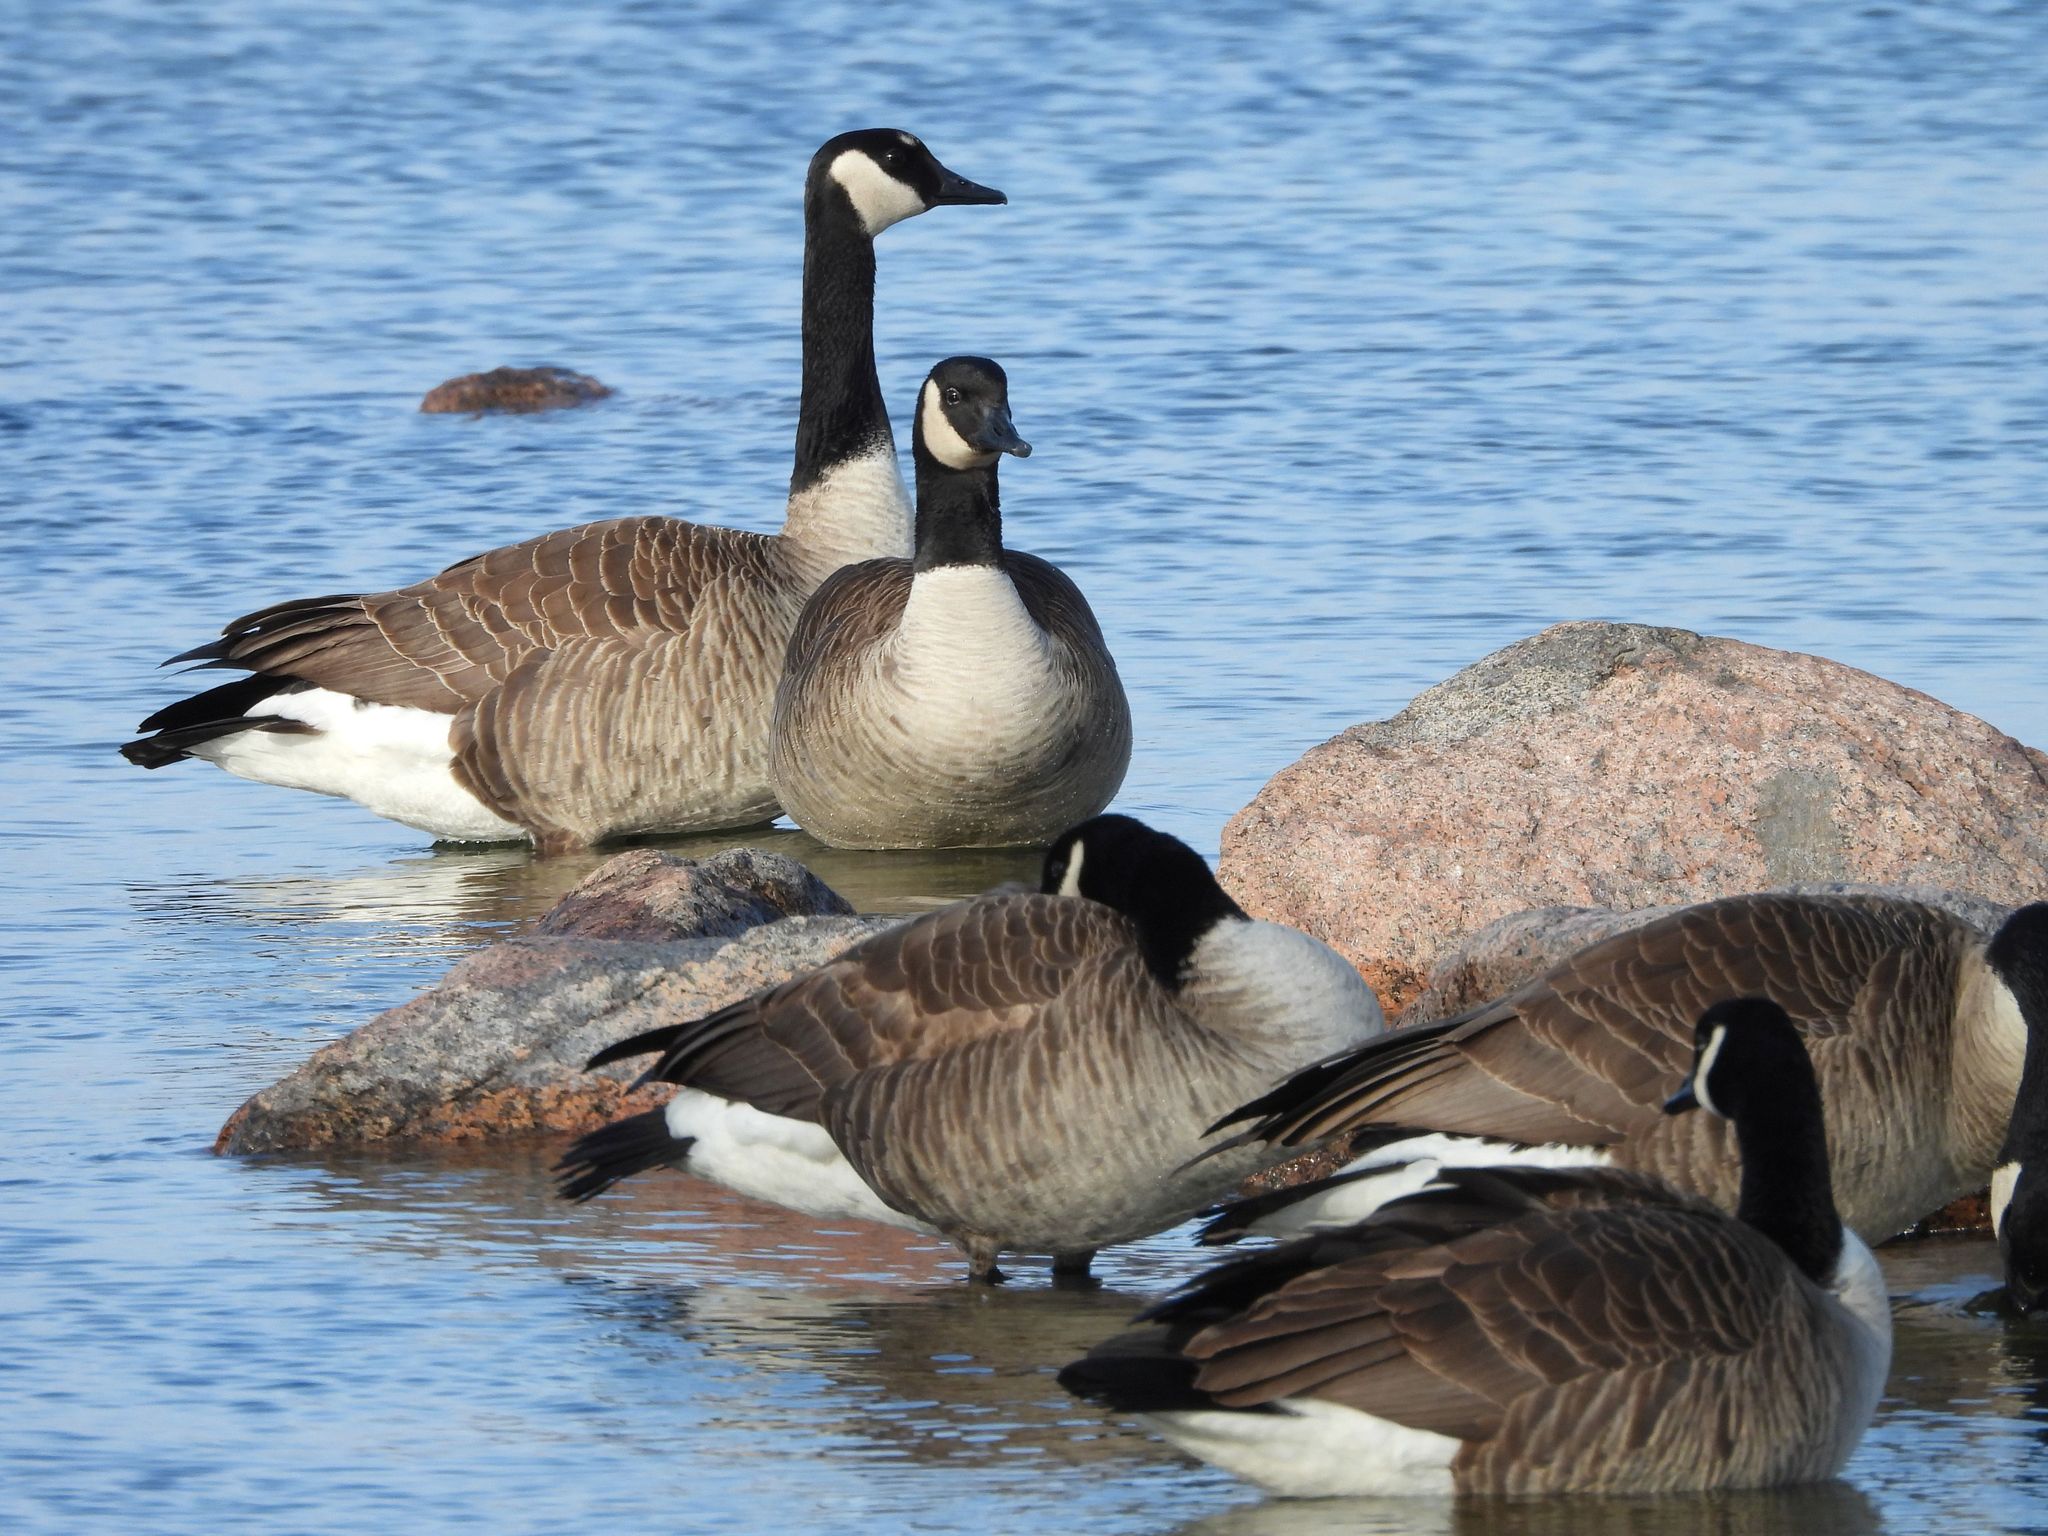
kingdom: Animalia
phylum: Chordata
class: Aves
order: Anseriformes
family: Anatidae
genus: Branta
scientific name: Branta canadensis
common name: Canada goose
